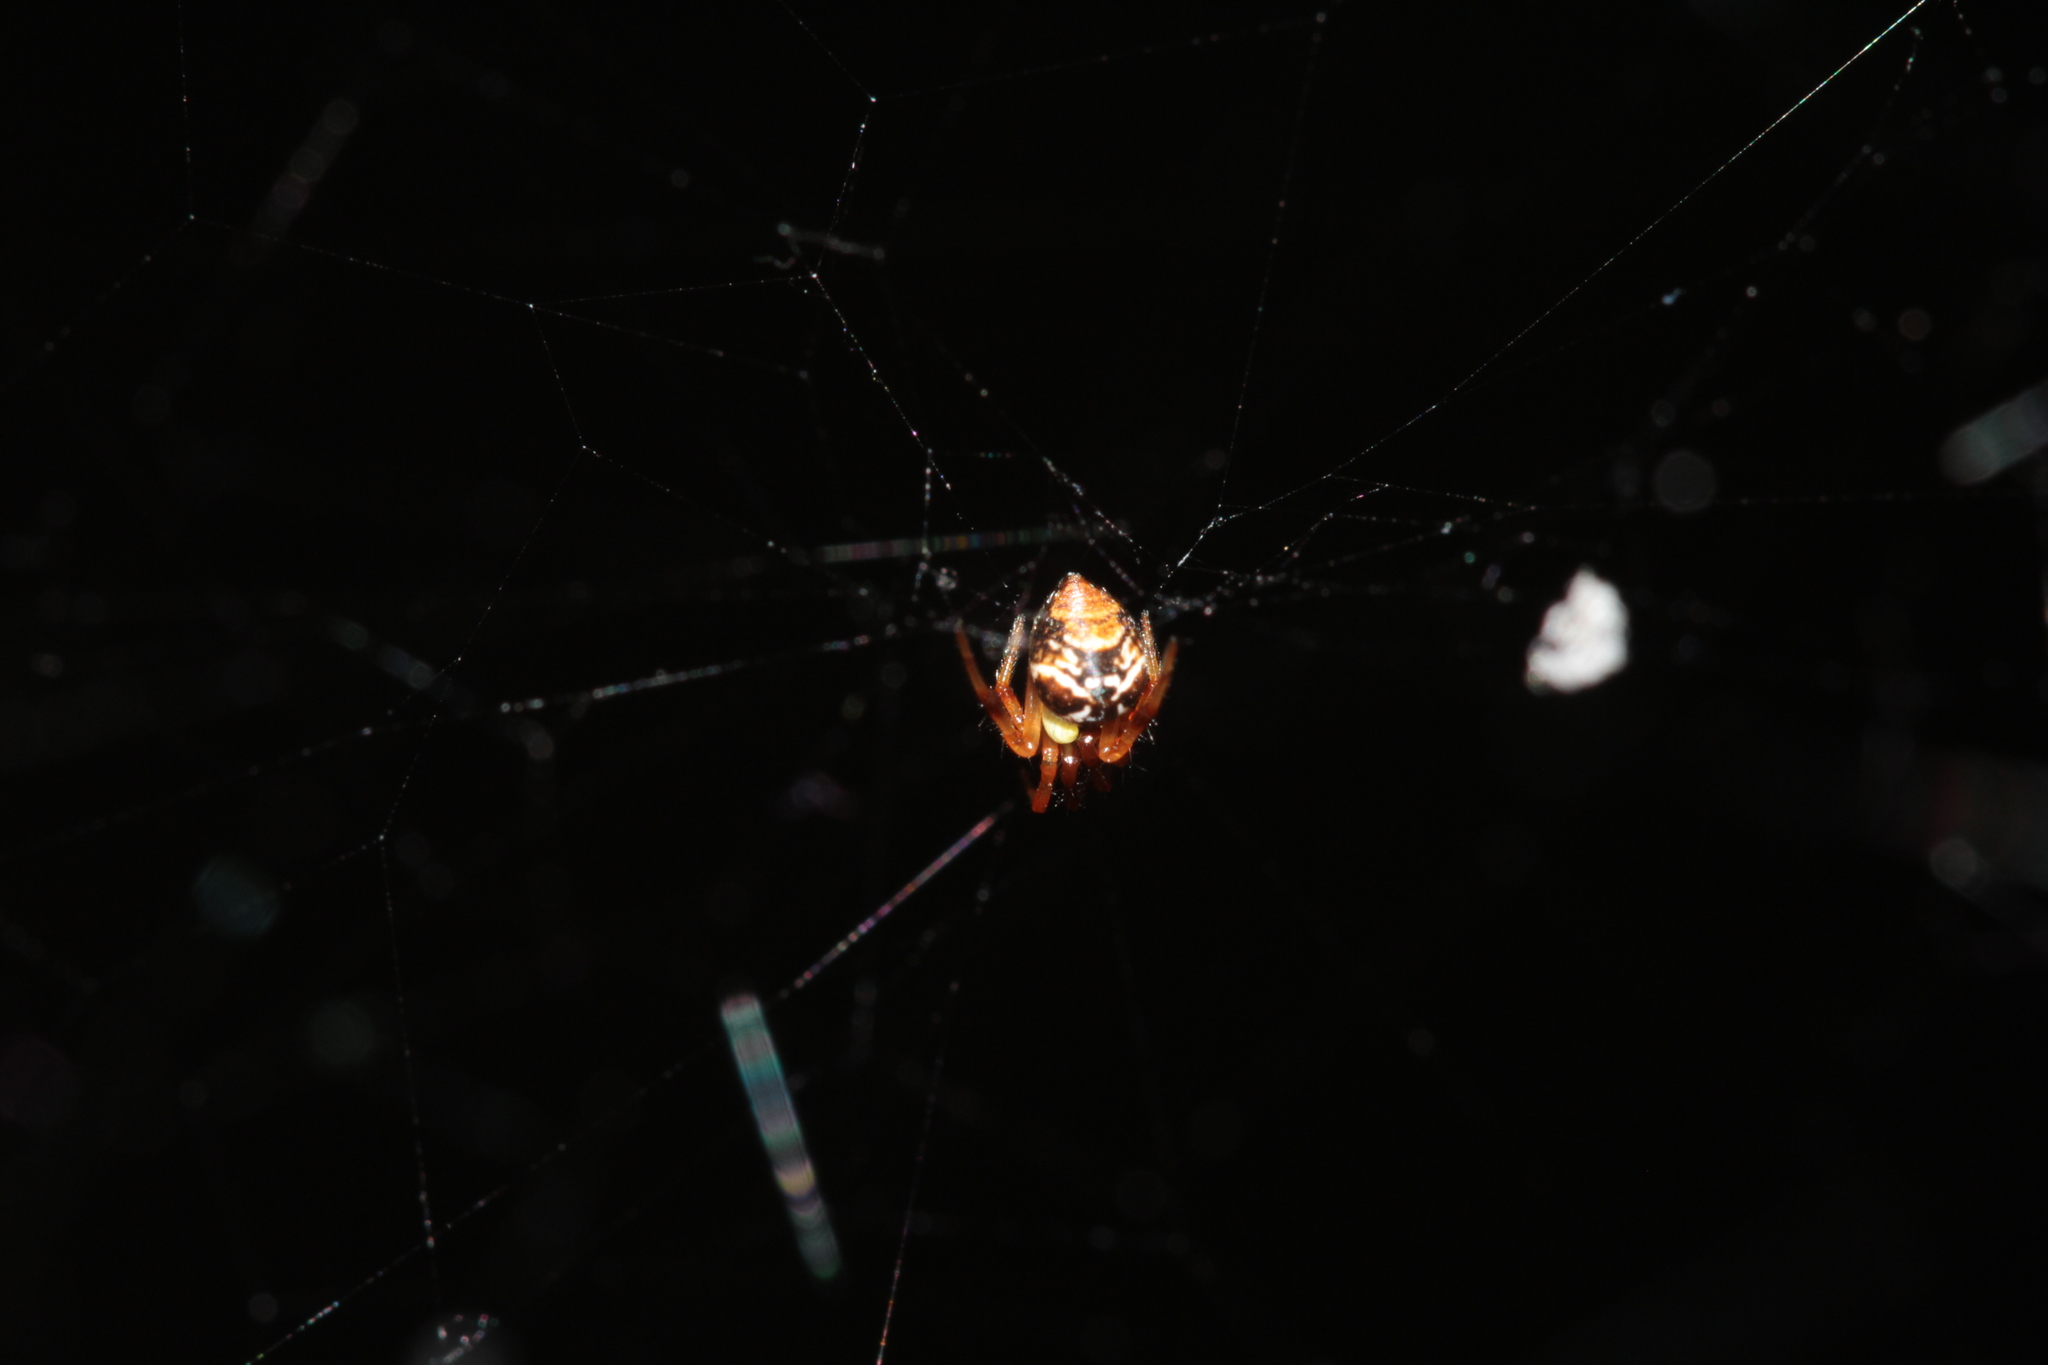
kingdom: Animalia
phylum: Arthropoda
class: Arachnida
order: Araneae
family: Theridiidae
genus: Parasteatoda
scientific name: Parasteatoda lunata
